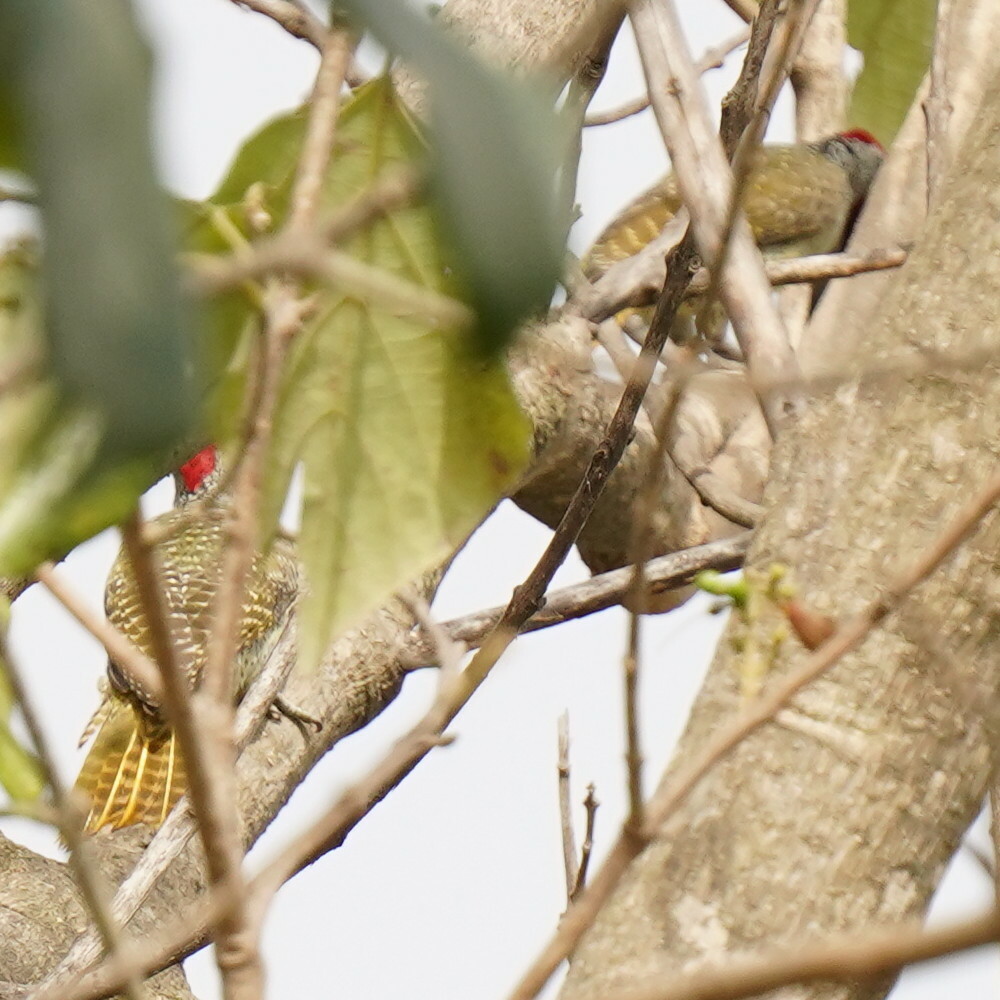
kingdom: Animalia
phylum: Chordata
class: Aves
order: Piciformes
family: Picidae
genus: Campethera
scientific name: Campethera punctuligera
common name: Fine-spotted woodpecker
